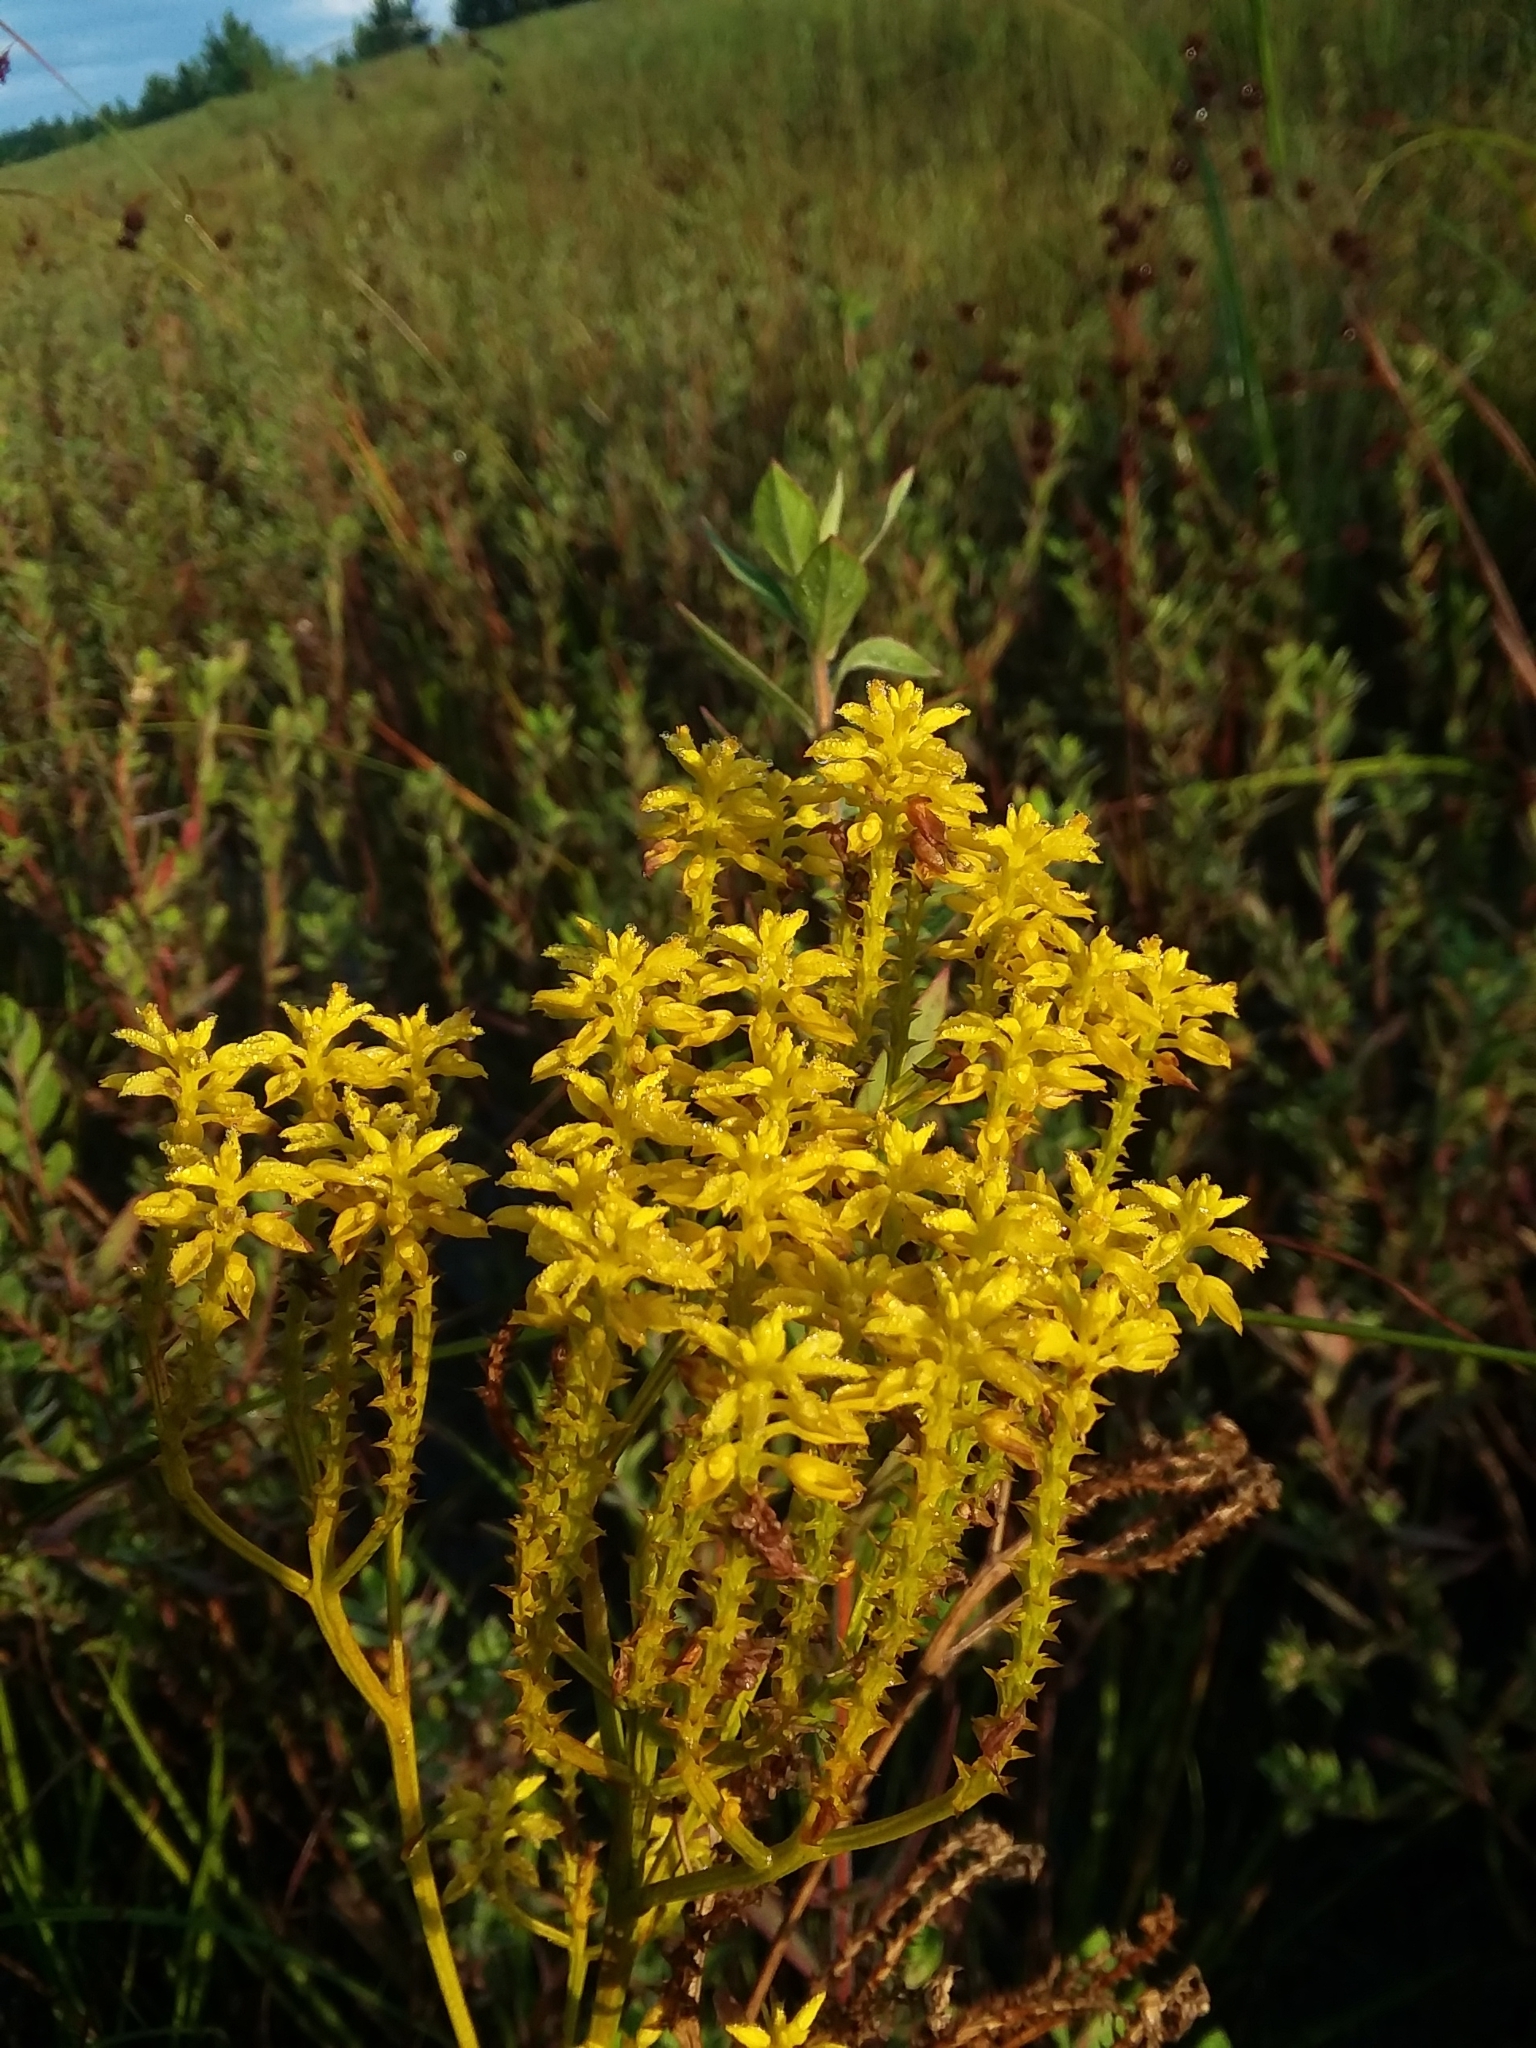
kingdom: Plantae
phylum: Tracheophyta
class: Magnoliopsida
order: Fabales
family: Polygalaceae
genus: Polygala
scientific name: Polygala cymosa
